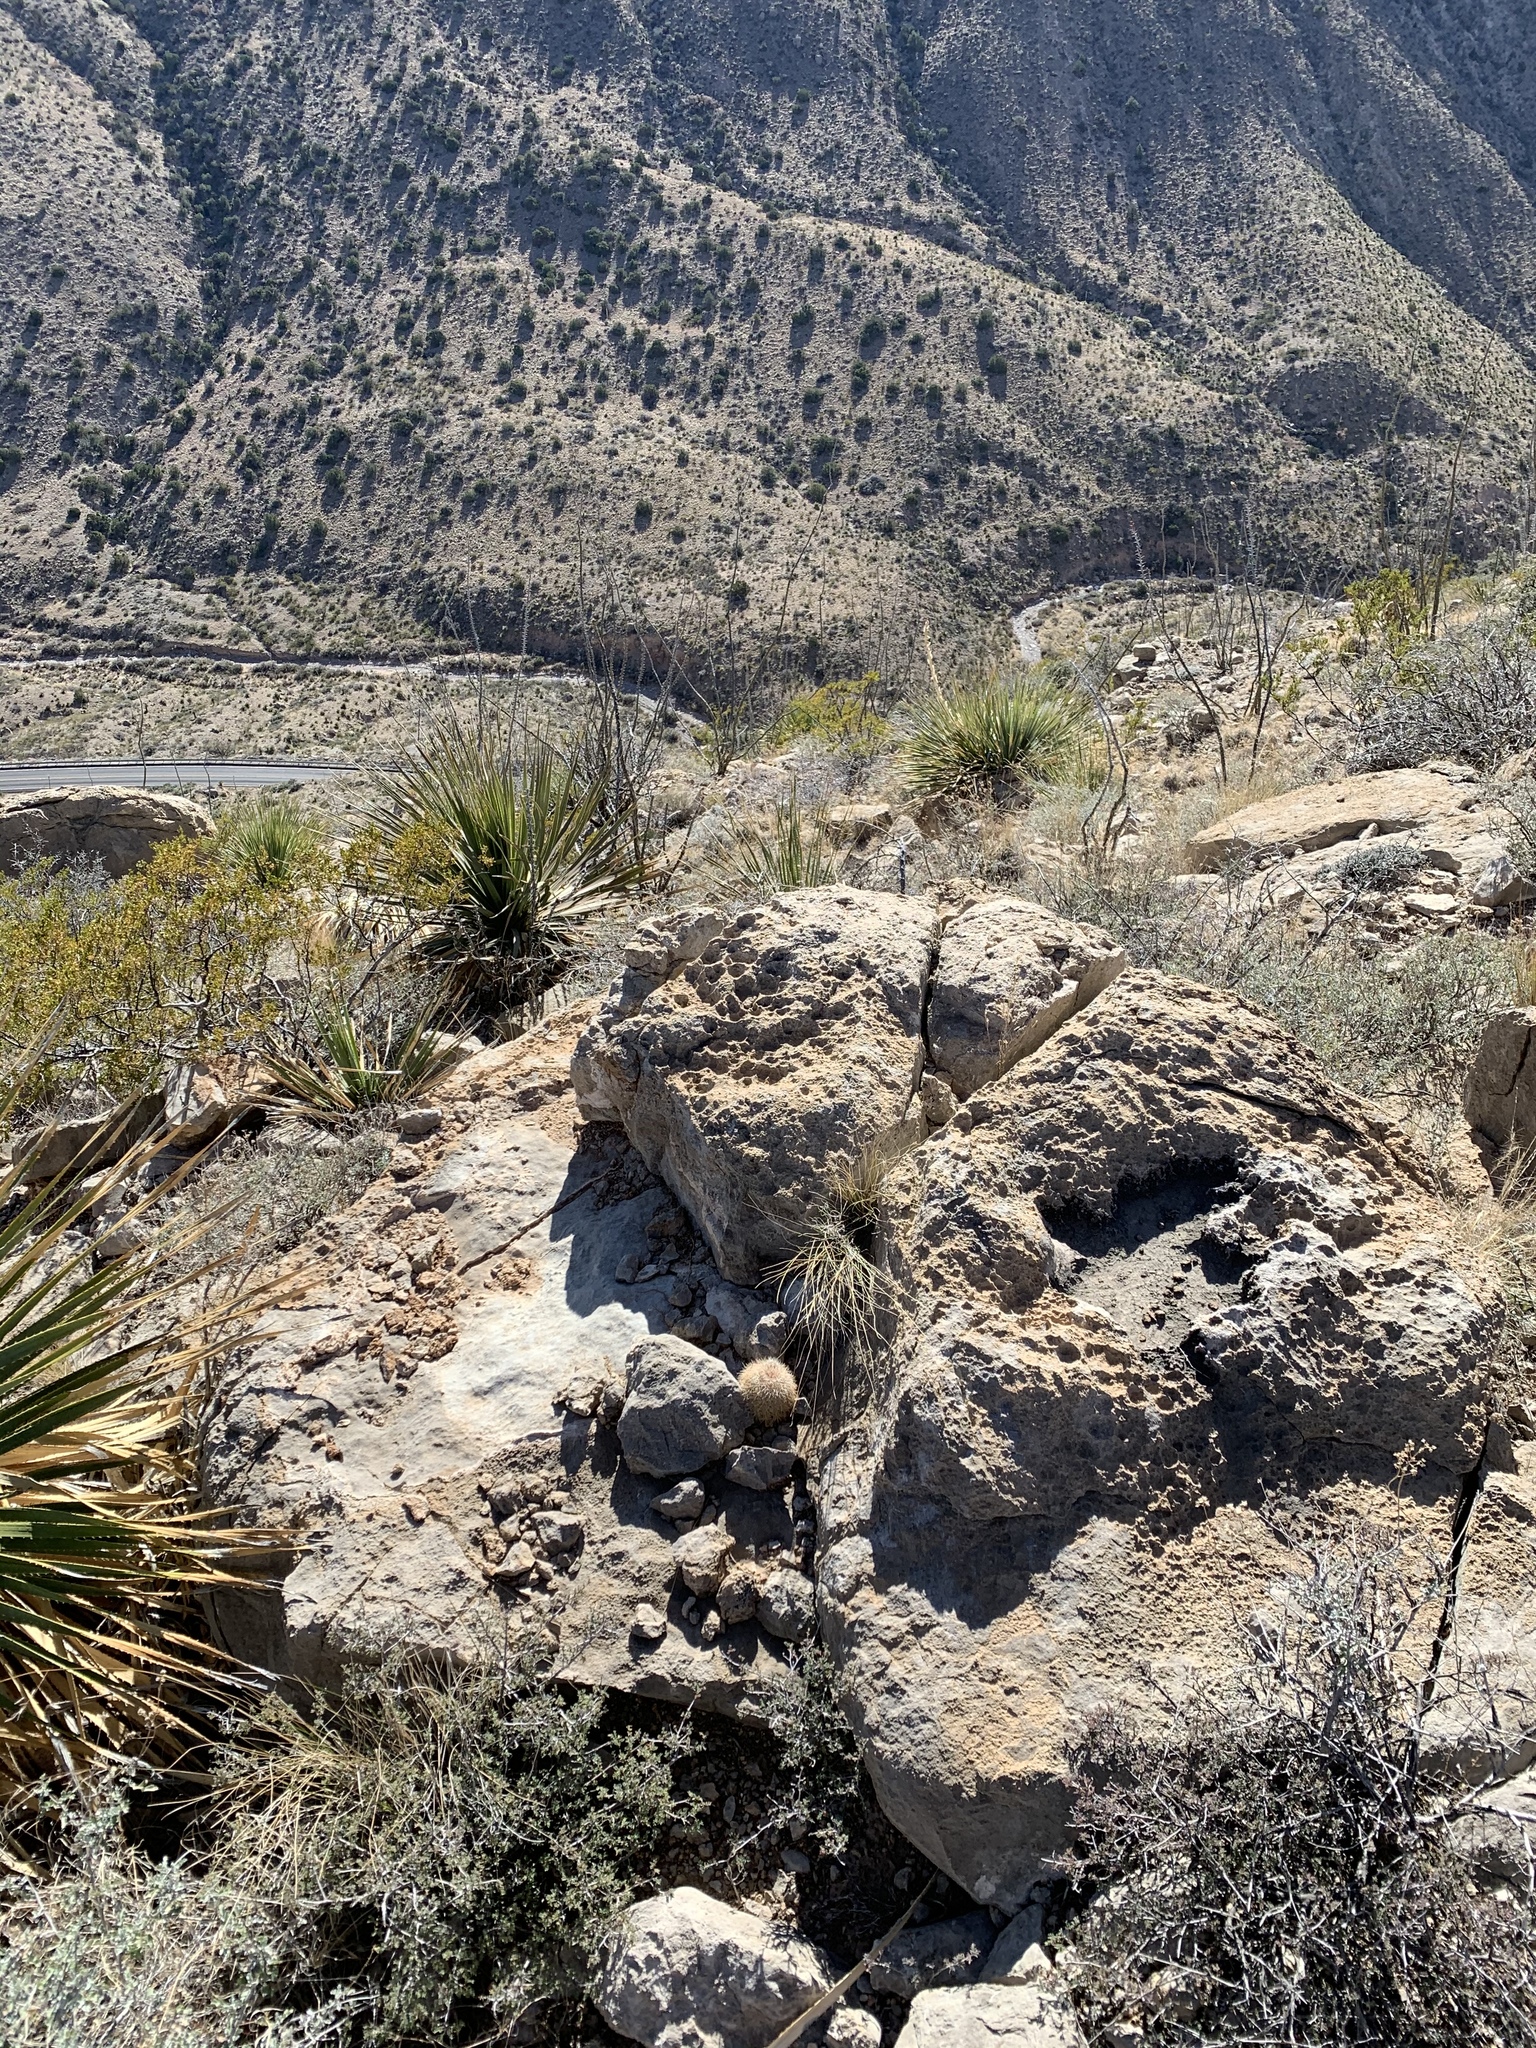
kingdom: Plantae
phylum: Tracheophyta
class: Magnoliopsida
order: Caryophyllales
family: Cactaceae
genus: Echinocereus
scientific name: Echinocereus dasyacanthus
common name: Spiny hedgehog cactus
